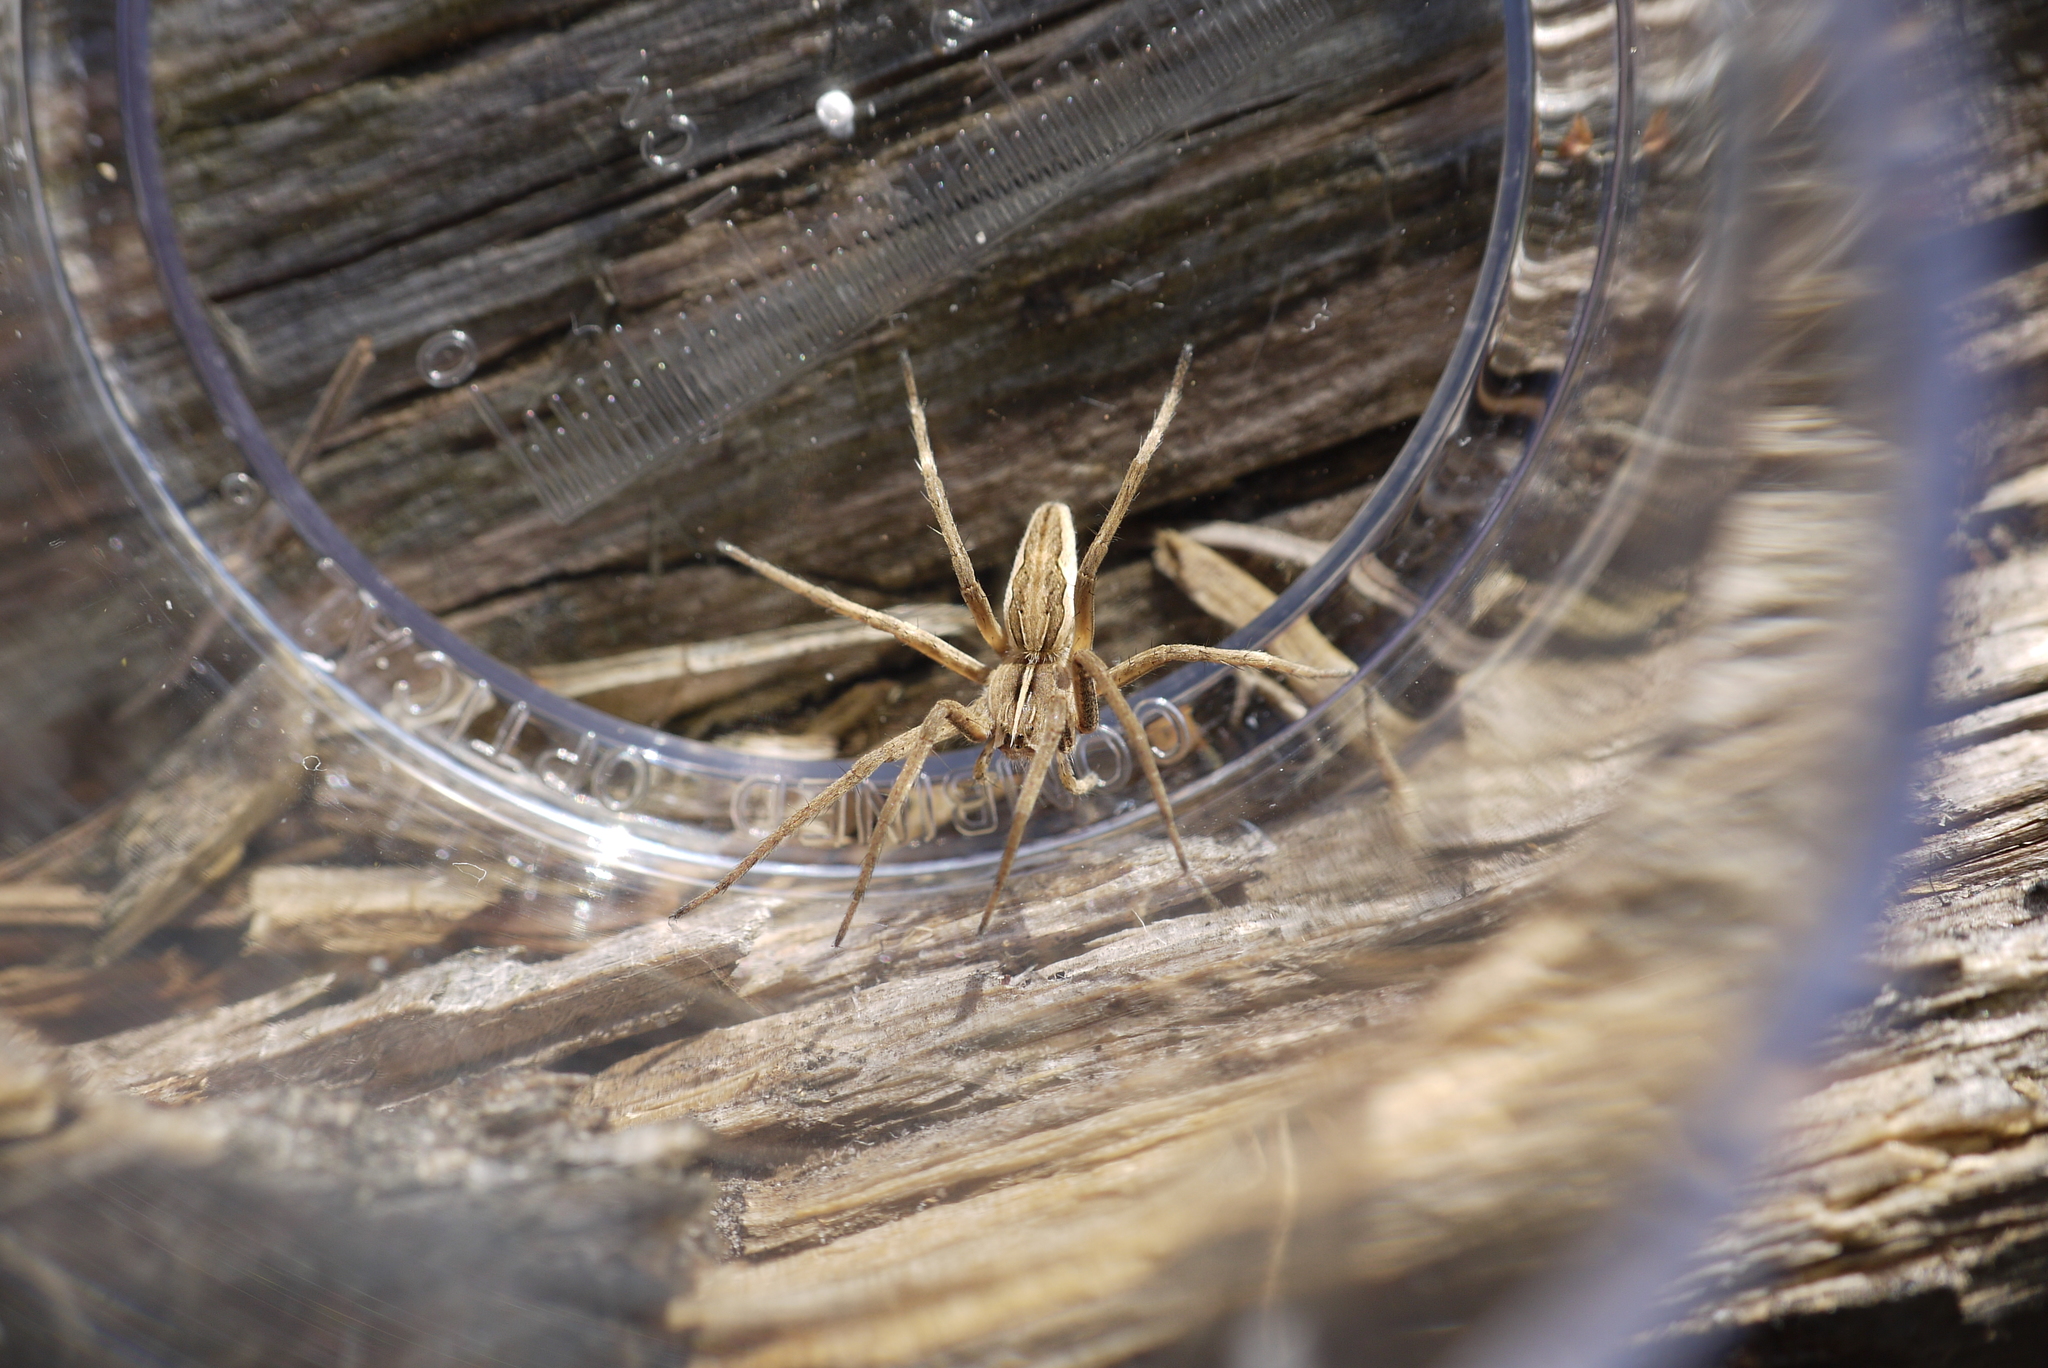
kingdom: Animalia
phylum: Arthropoda
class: Arachnida
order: Araneae
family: Pisauridae
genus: Pisaura
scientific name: Pisaura mirabilis
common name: Tent spider
